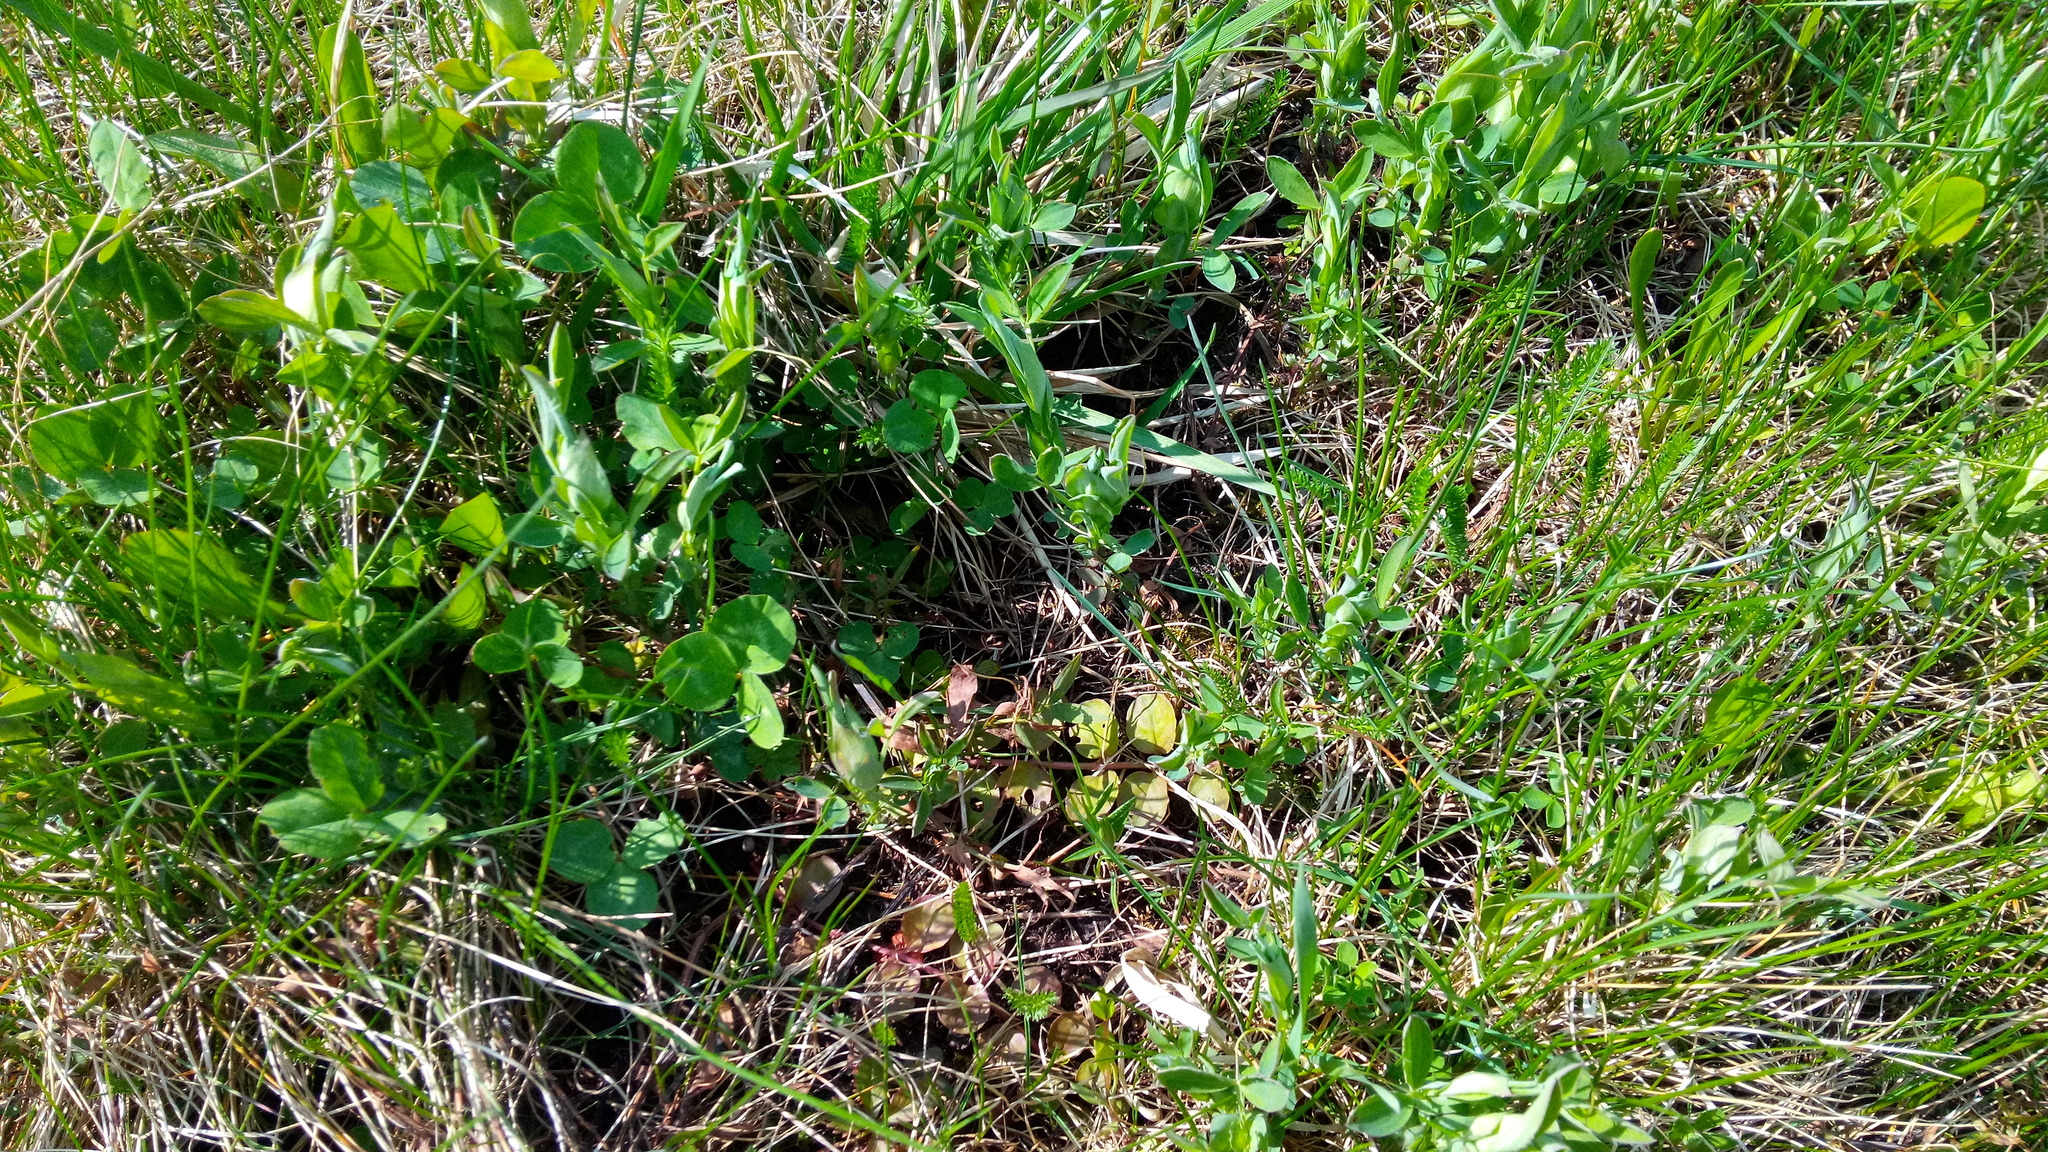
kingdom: Plantae
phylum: Tracheophyta
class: Magnoliopsida
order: Fabales
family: Fabaceae
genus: Lathyrus
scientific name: Lathyrus pratensis
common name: Meadow vetchling
